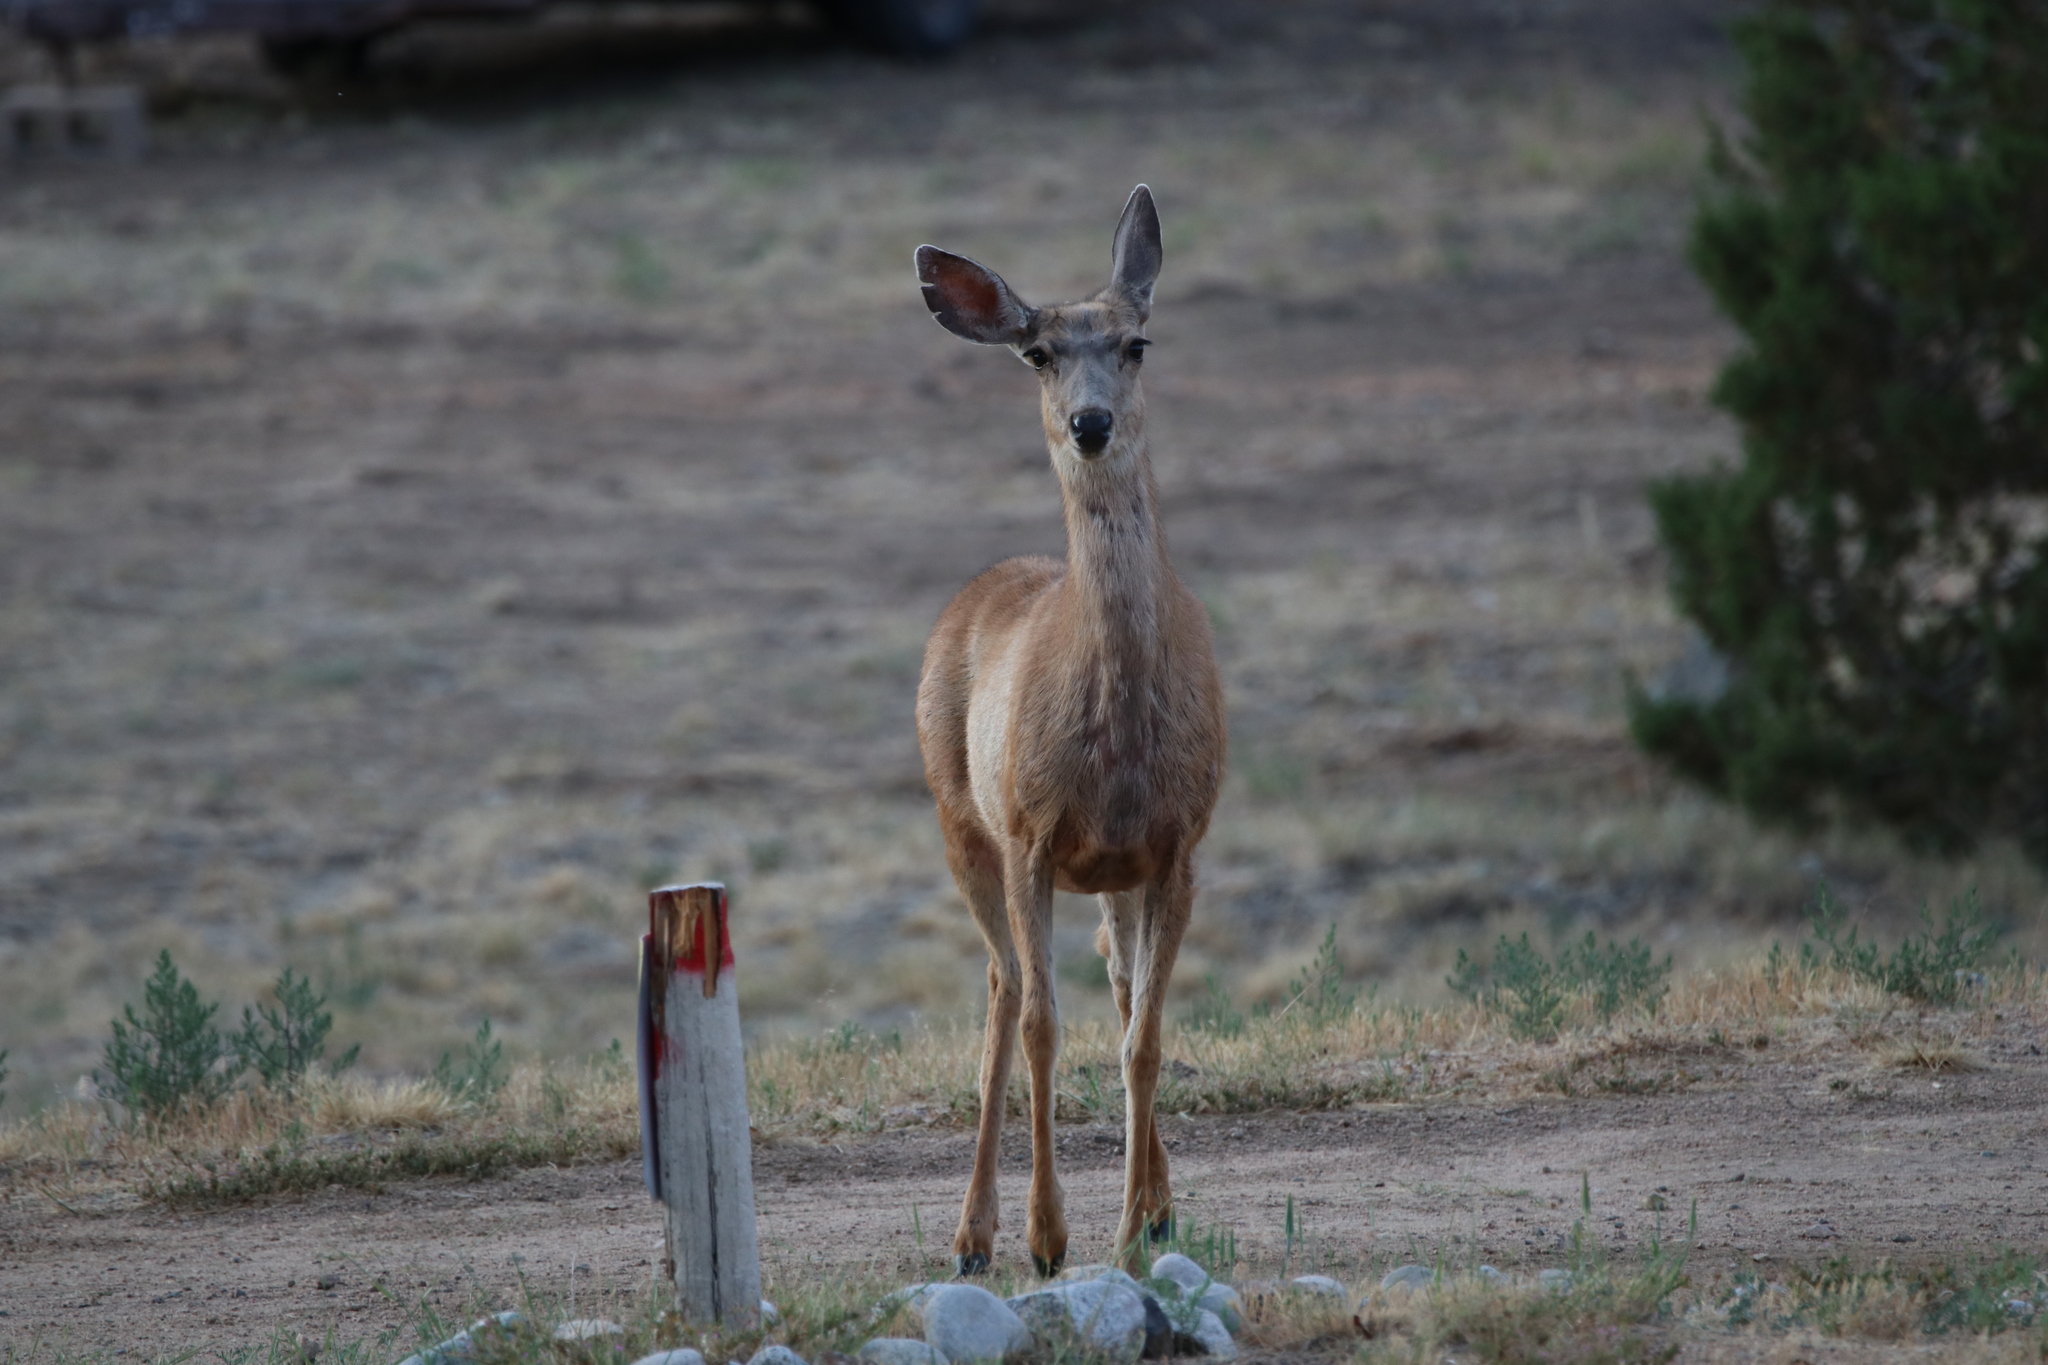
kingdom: Animalia
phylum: Chordata
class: Mammalia
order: Artiodactyla
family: Cervidae
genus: Odocoileus
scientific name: Odocoileus hemionus
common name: Mule deer
